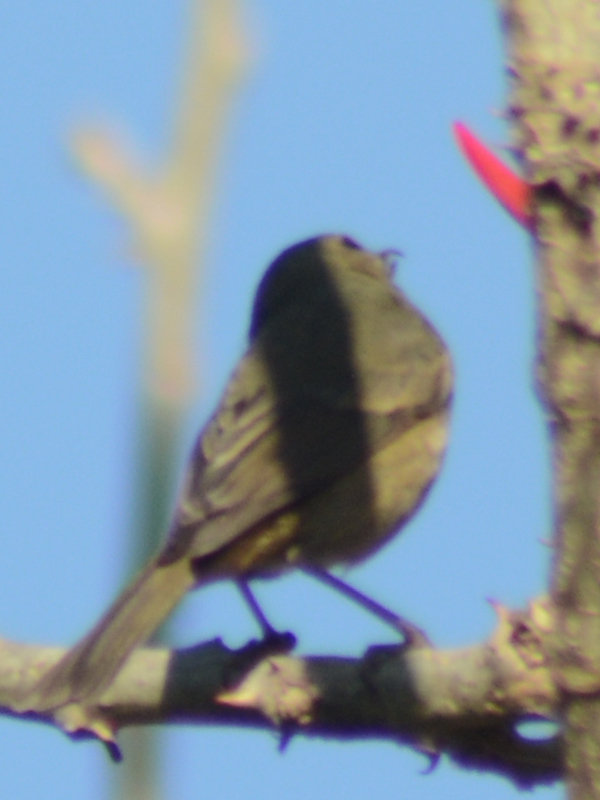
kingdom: Animalia
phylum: Chordata
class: Aves
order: Passeriformes
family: Thraupidae
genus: Diglossa
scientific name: Diglossa baritula
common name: Cinnamon-bellied flowerpiercer
